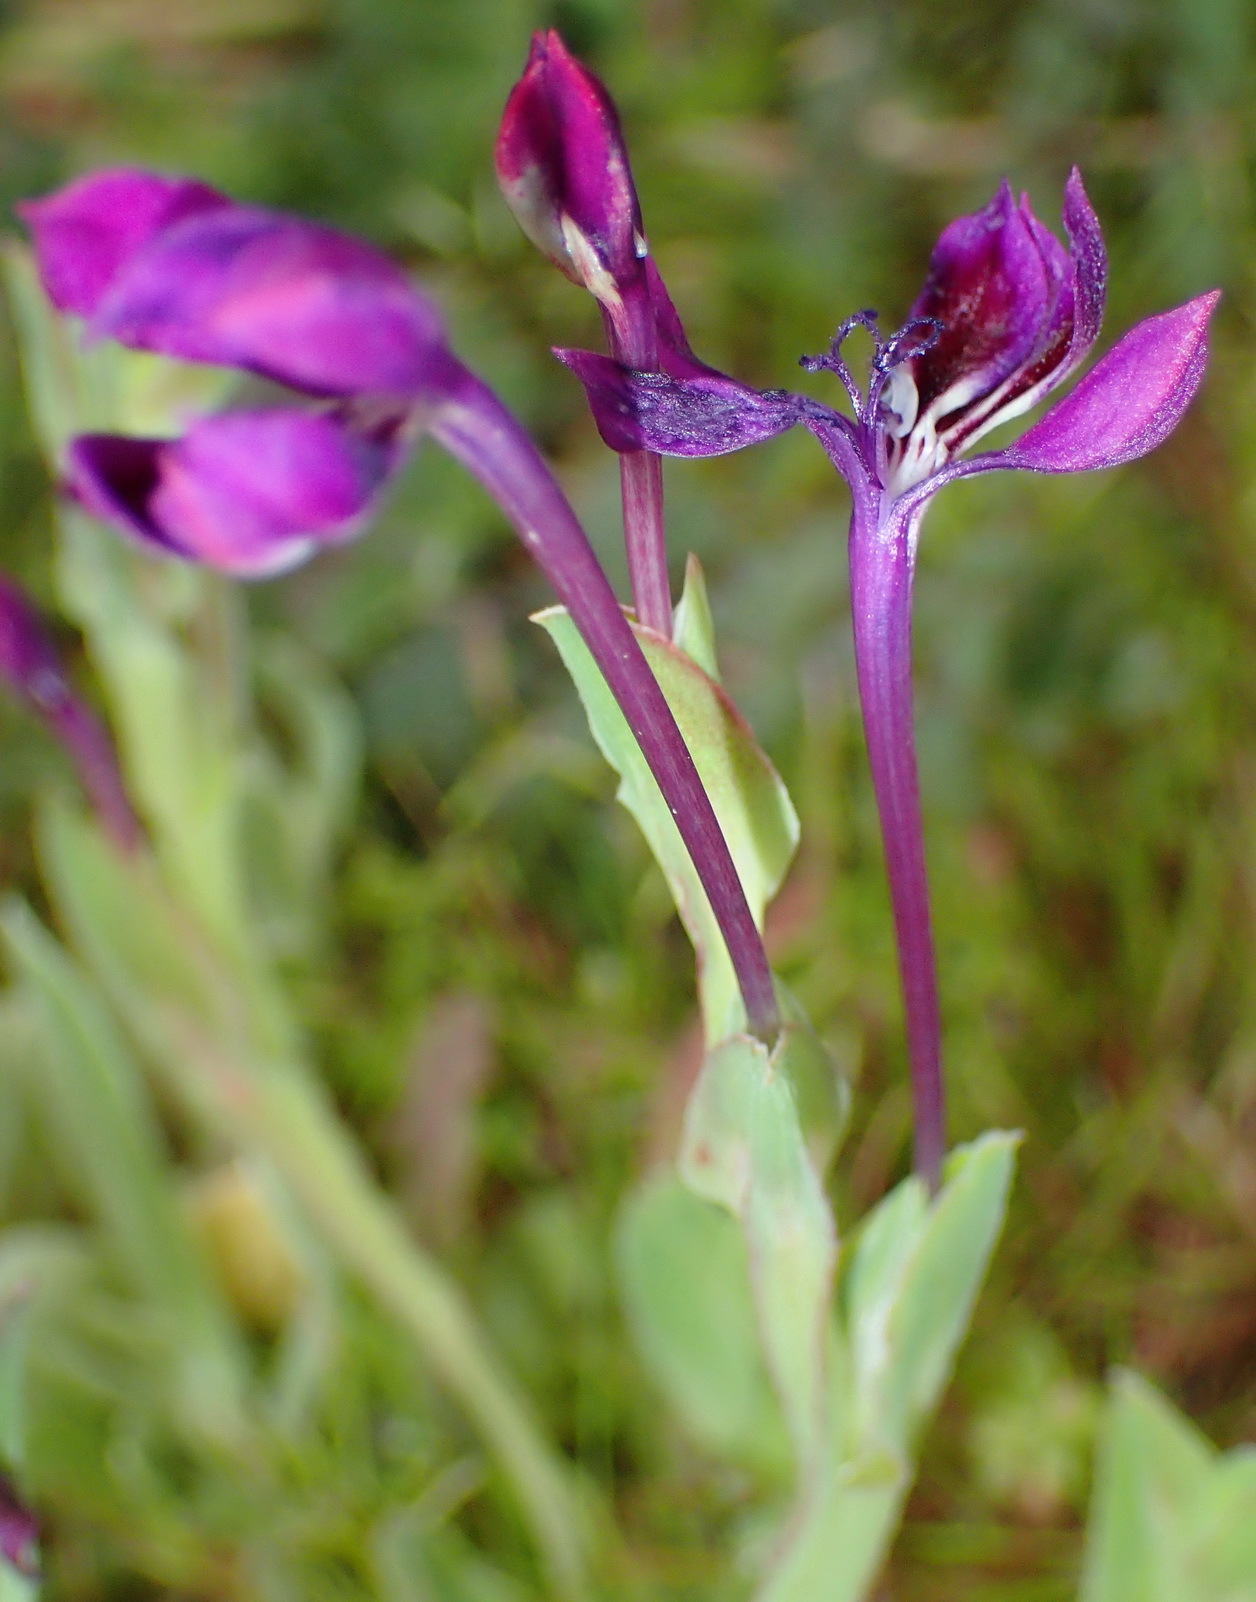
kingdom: Plantae
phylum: Tracheophyta
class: Liliopsida
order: Asparagales
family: Iridaceae
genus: Lapeirousia
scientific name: Lapeirousia jacquinii
